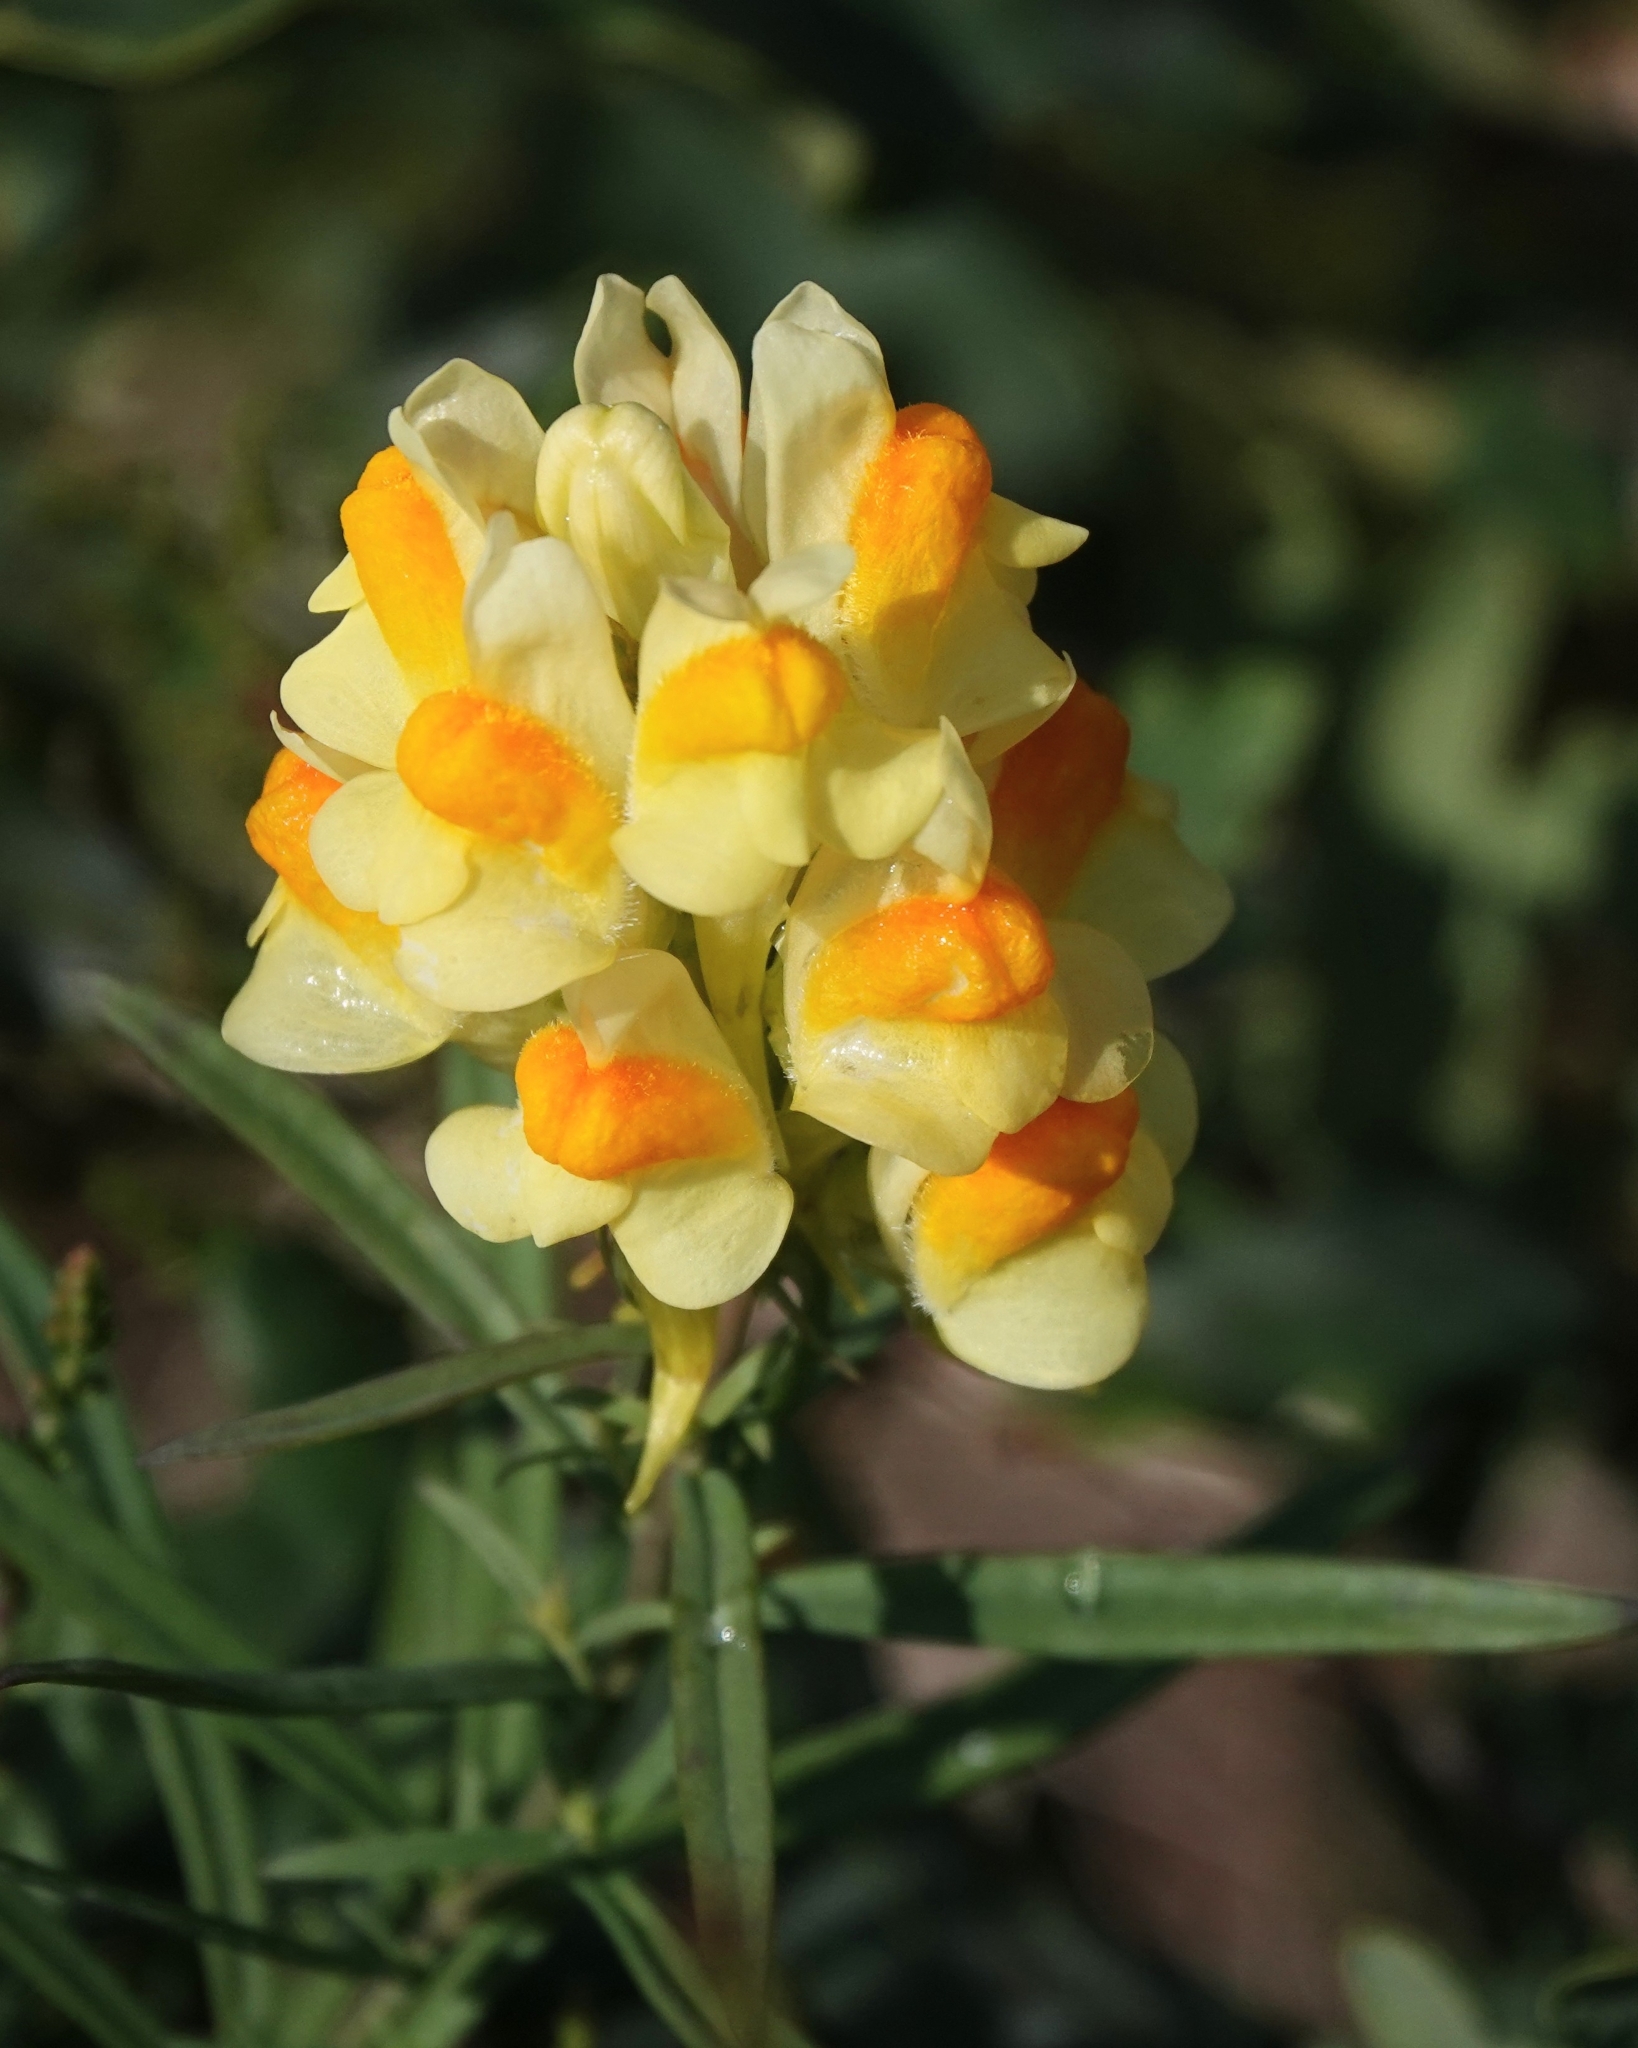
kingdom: Plantae
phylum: Tracheophyta
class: Magnoliopsida
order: Lamiales
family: Plantaginaceae
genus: Linaria
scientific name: Linaria vulgaris
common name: Butter and eggs
